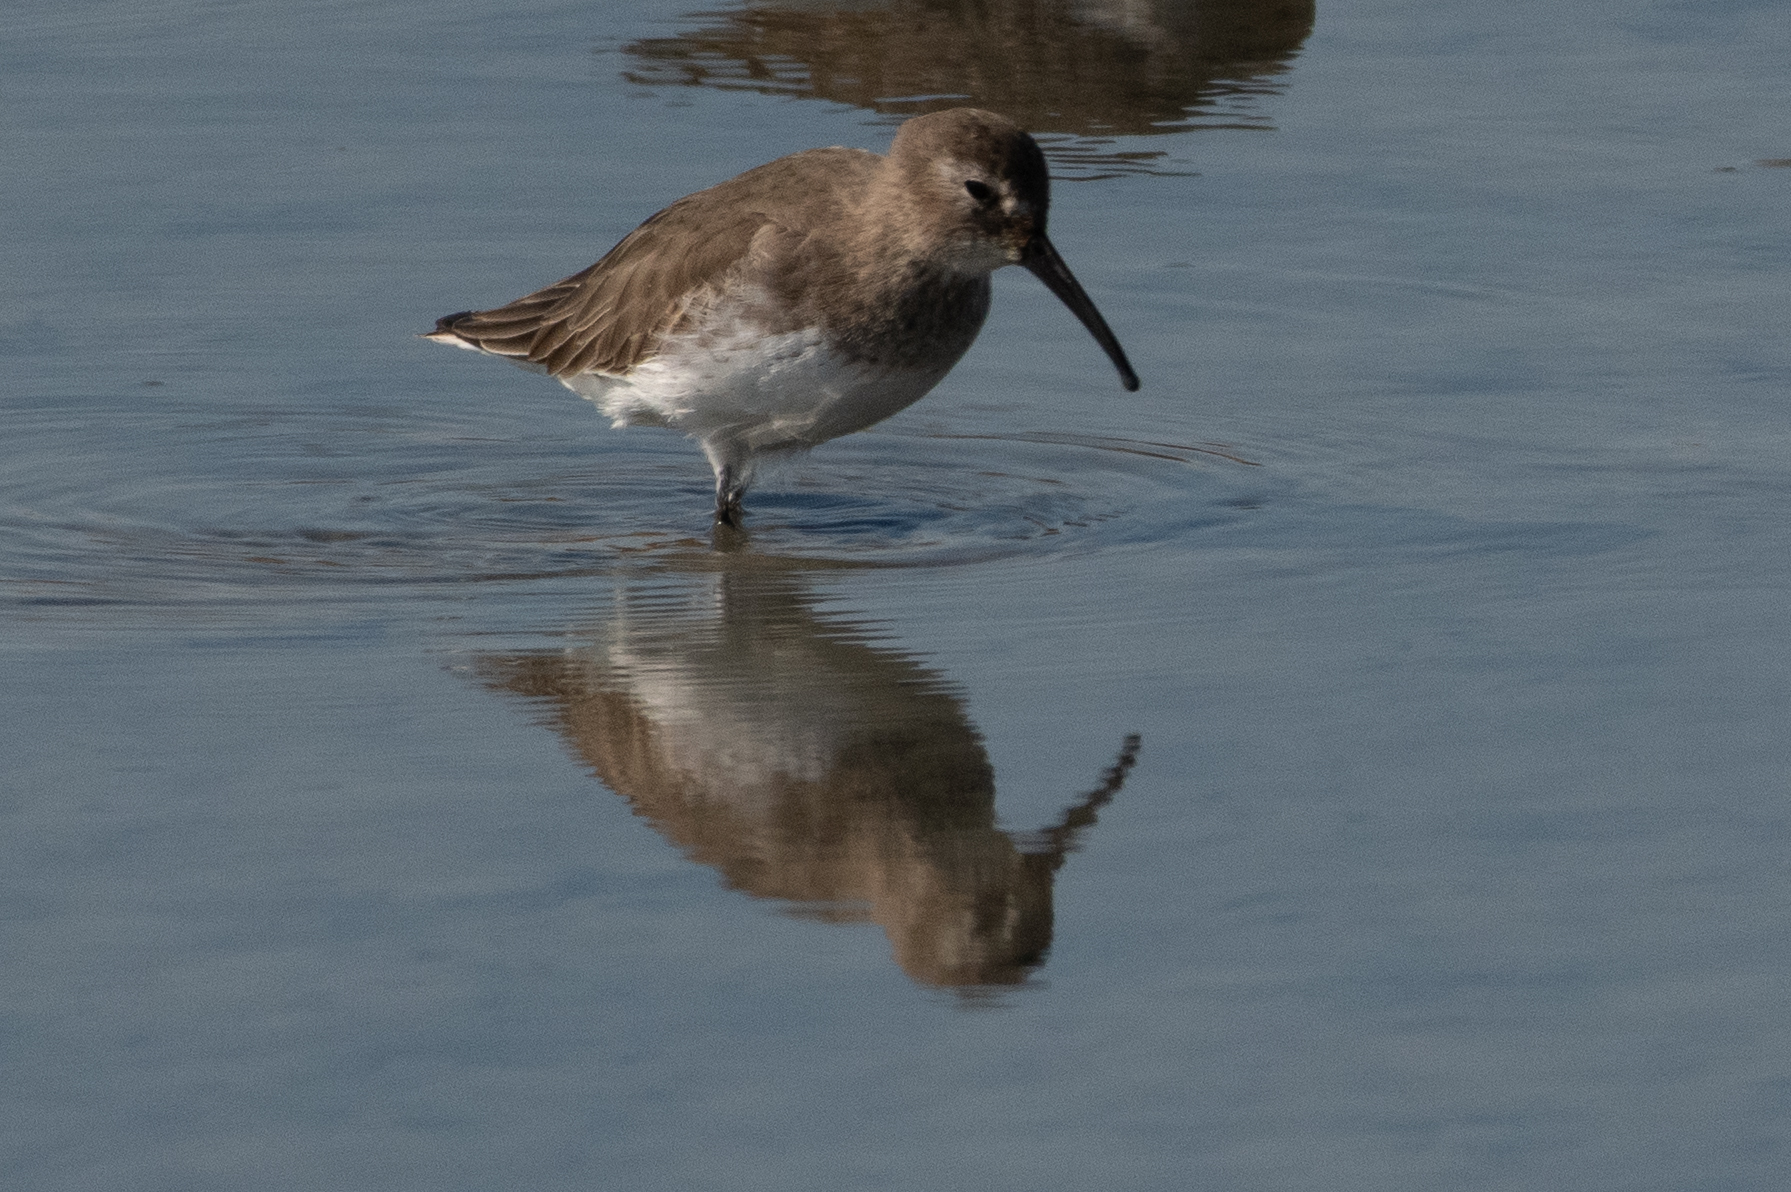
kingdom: Animalia
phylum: Chordata
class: Aves
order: Charadriiformes
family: Scolopacidae
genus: Calidris
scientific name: Calidris alpina
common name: Dunlin
